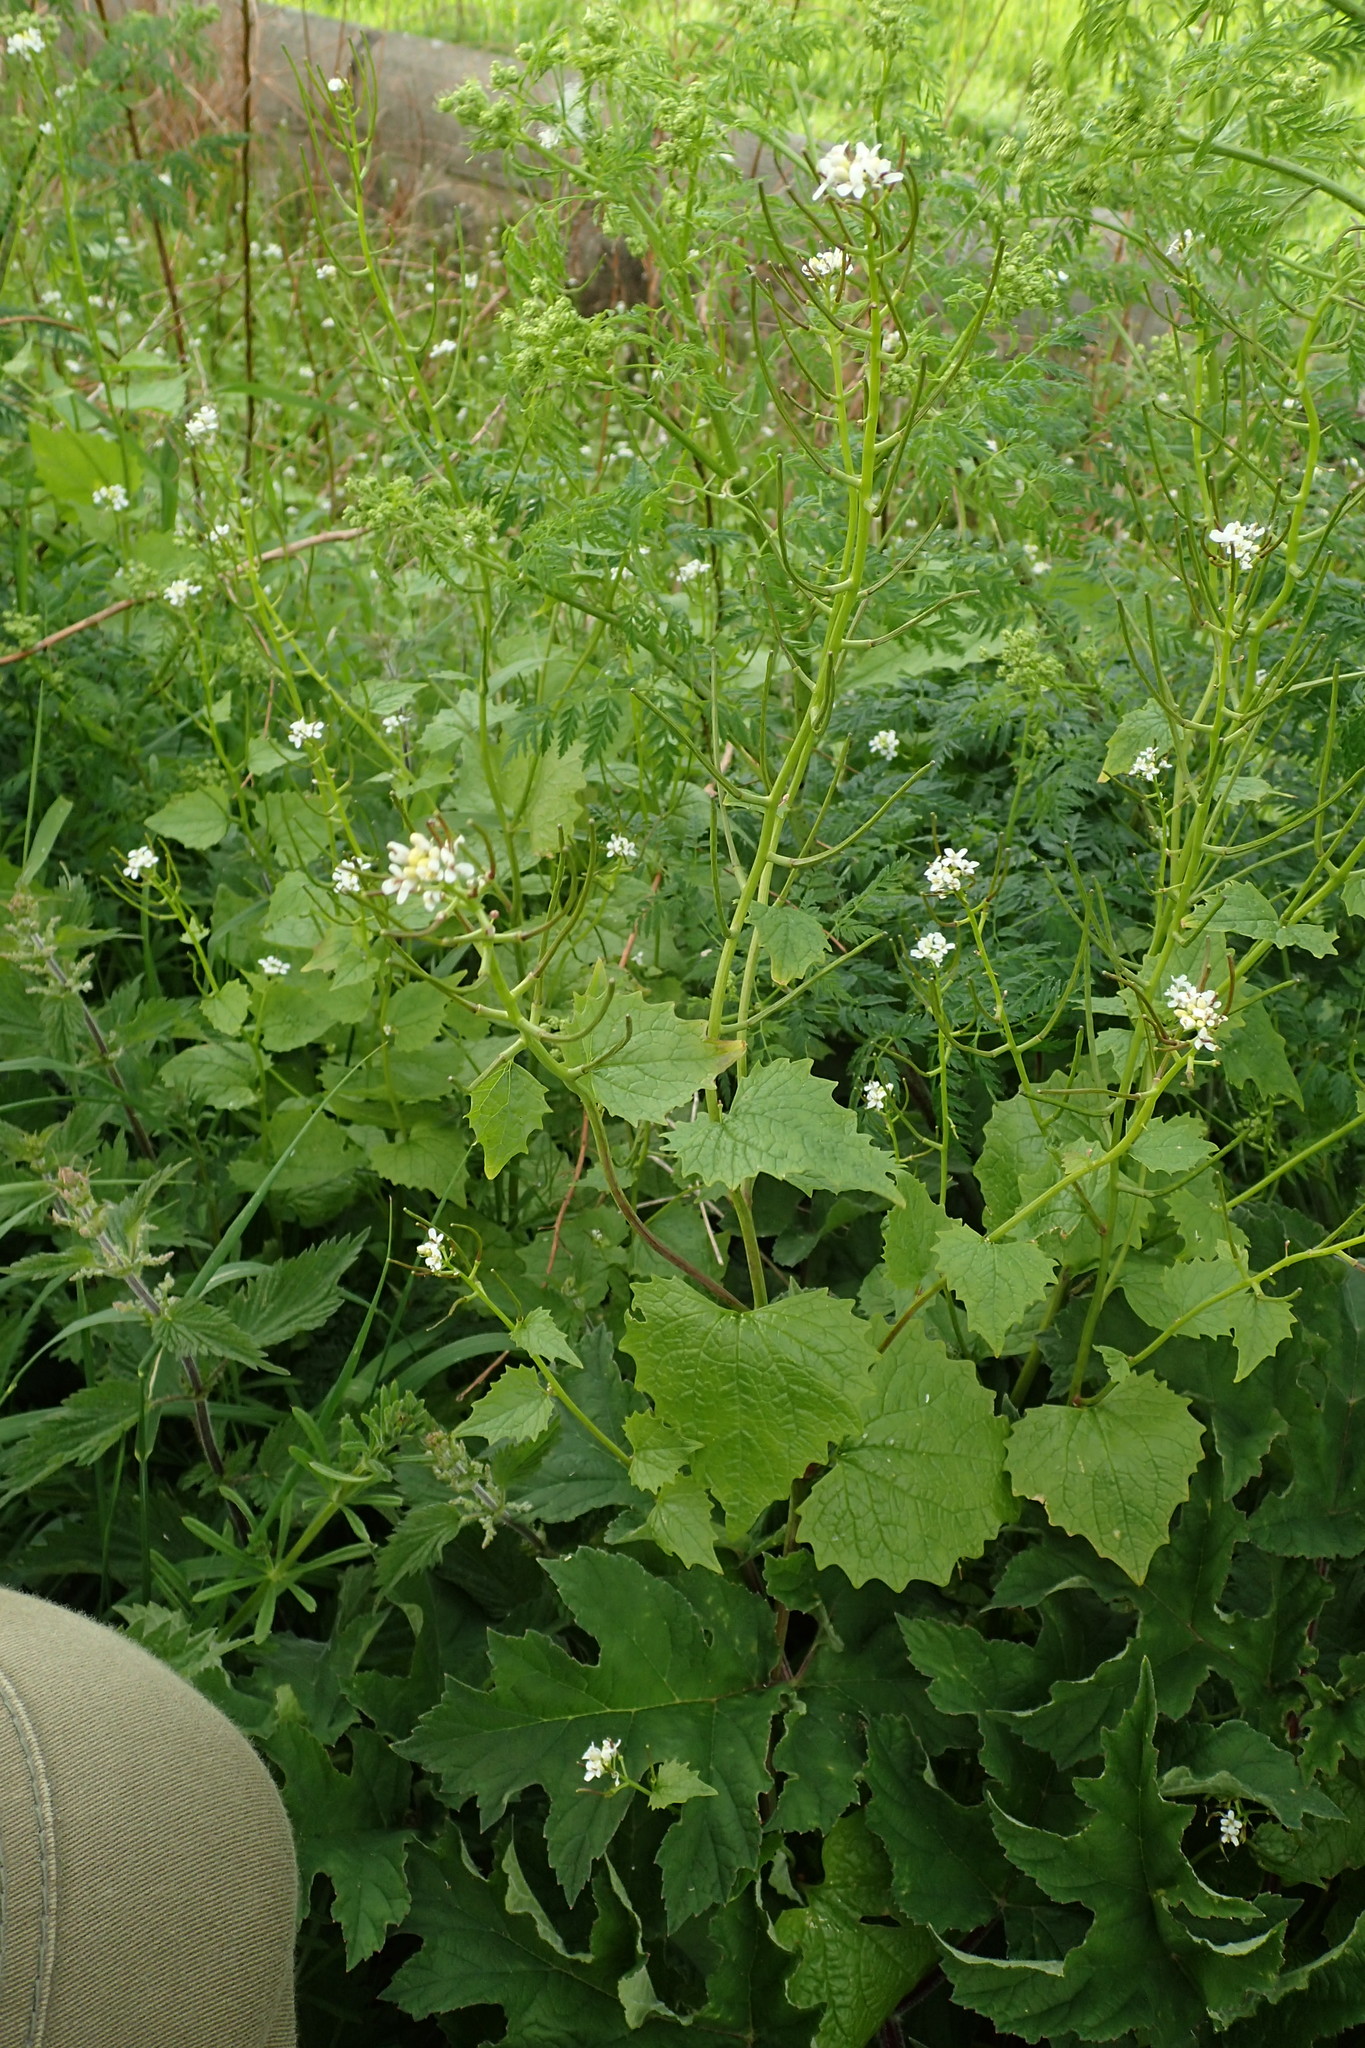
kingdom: Plantae
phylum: Tracheophyta
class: Magnoliopsida
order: Brassicales
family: Brassicaceae
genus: Alliaria
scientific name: Alliaria petiolata
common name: Garlic mustard
